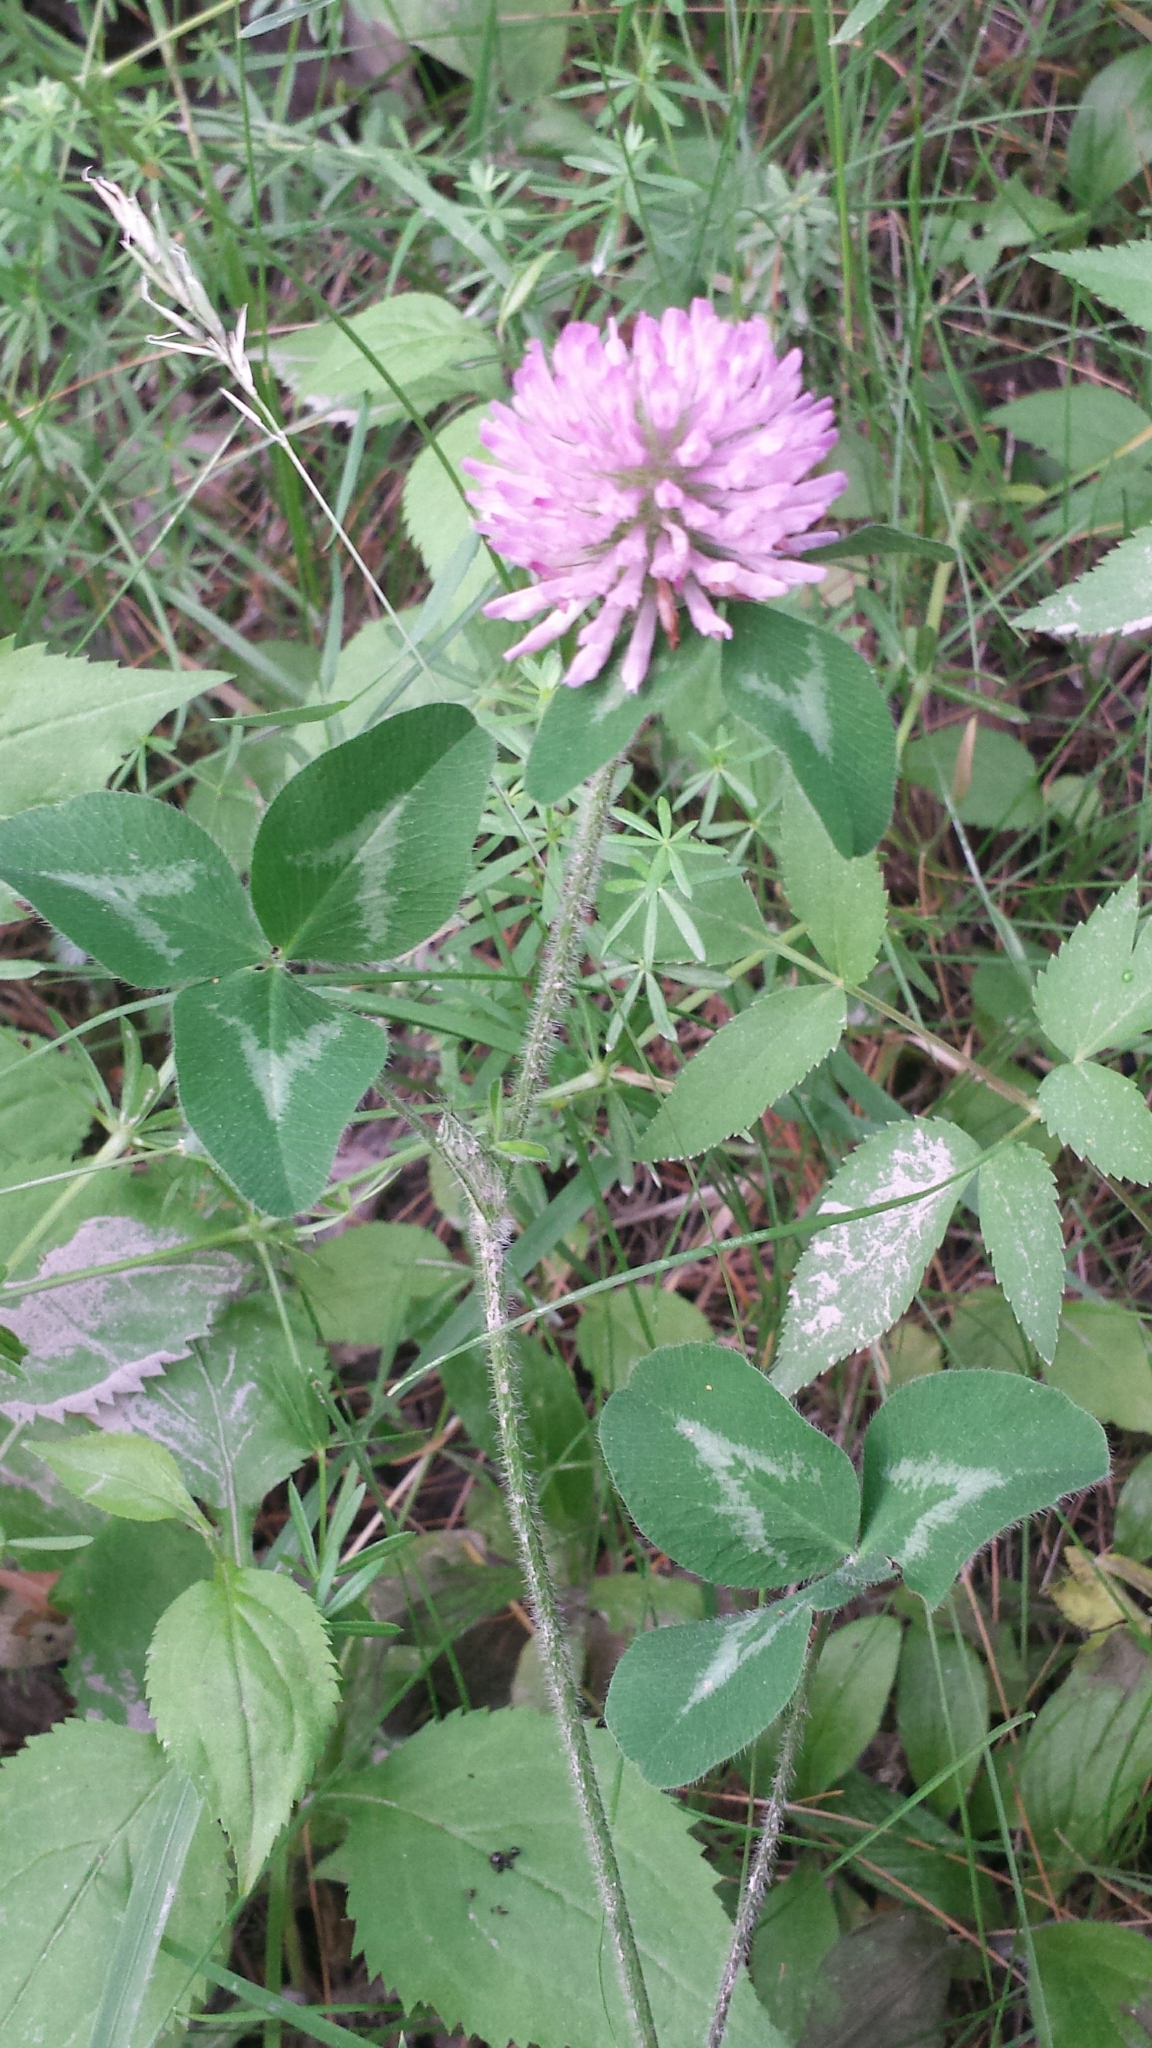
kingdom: Plantae
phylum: Tracheophyta
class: Magnoliopsida
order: Fabales
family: Fabaceae
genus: Trifolium
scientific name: Trifolium pratense
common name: Red clover
